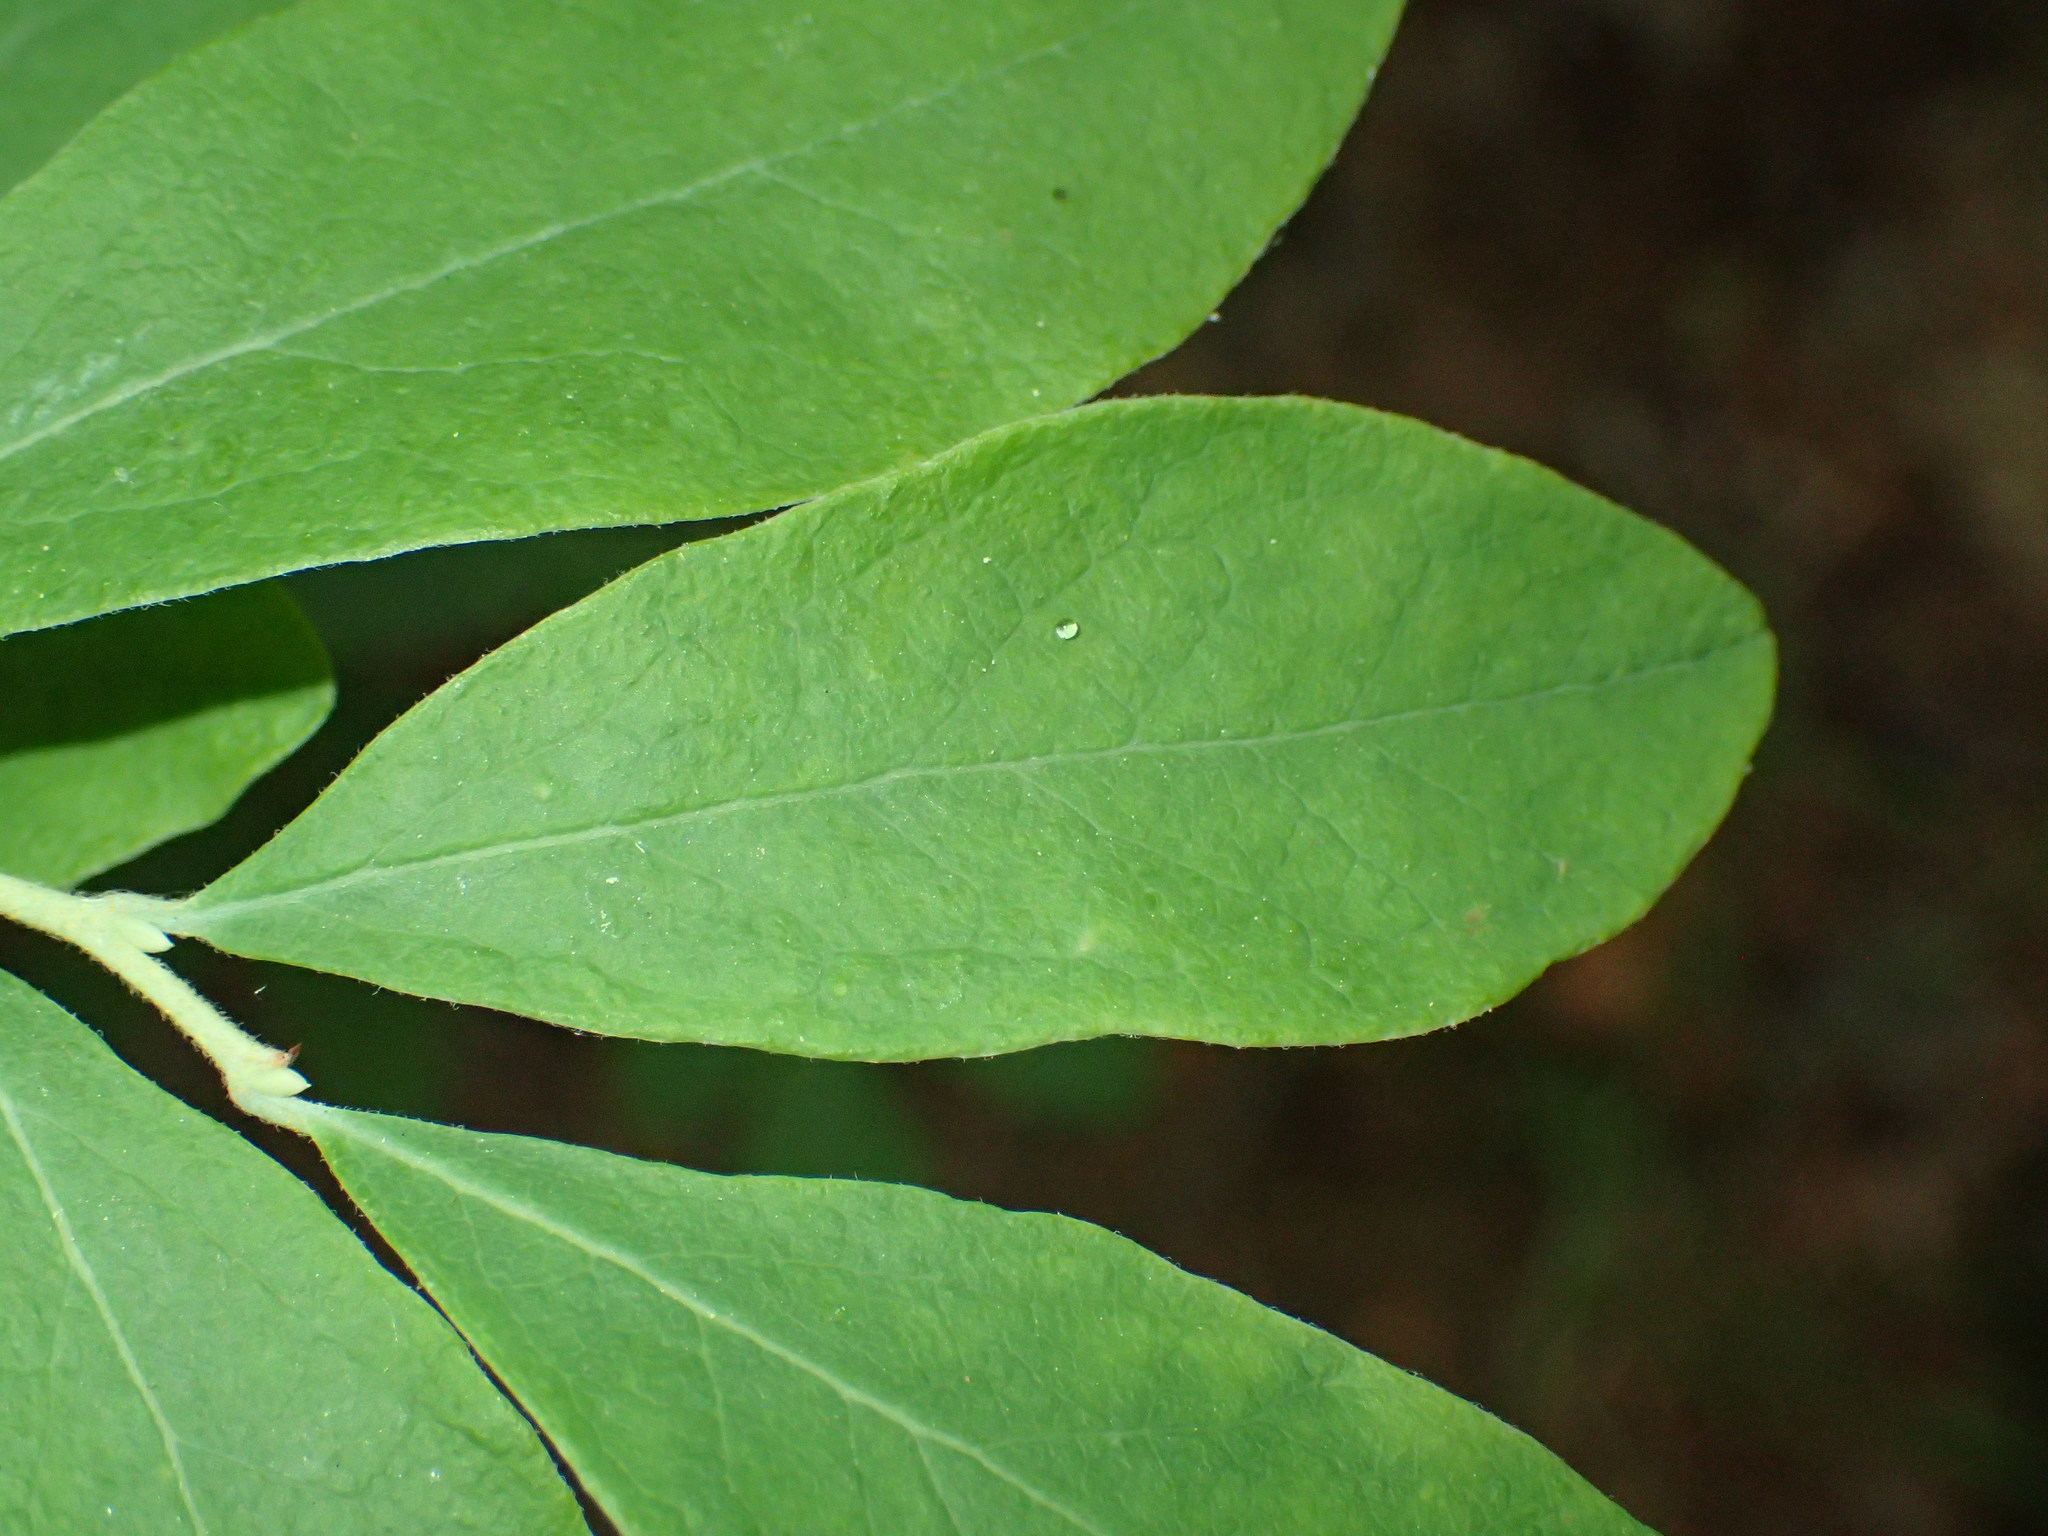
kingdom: Plantae
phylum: Tracheophyta
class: Magnoliopsida
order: Ericales
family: Ericaceae
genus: Gaylussacia
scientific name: Gaylussacia frondosa
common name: Dangleberry
